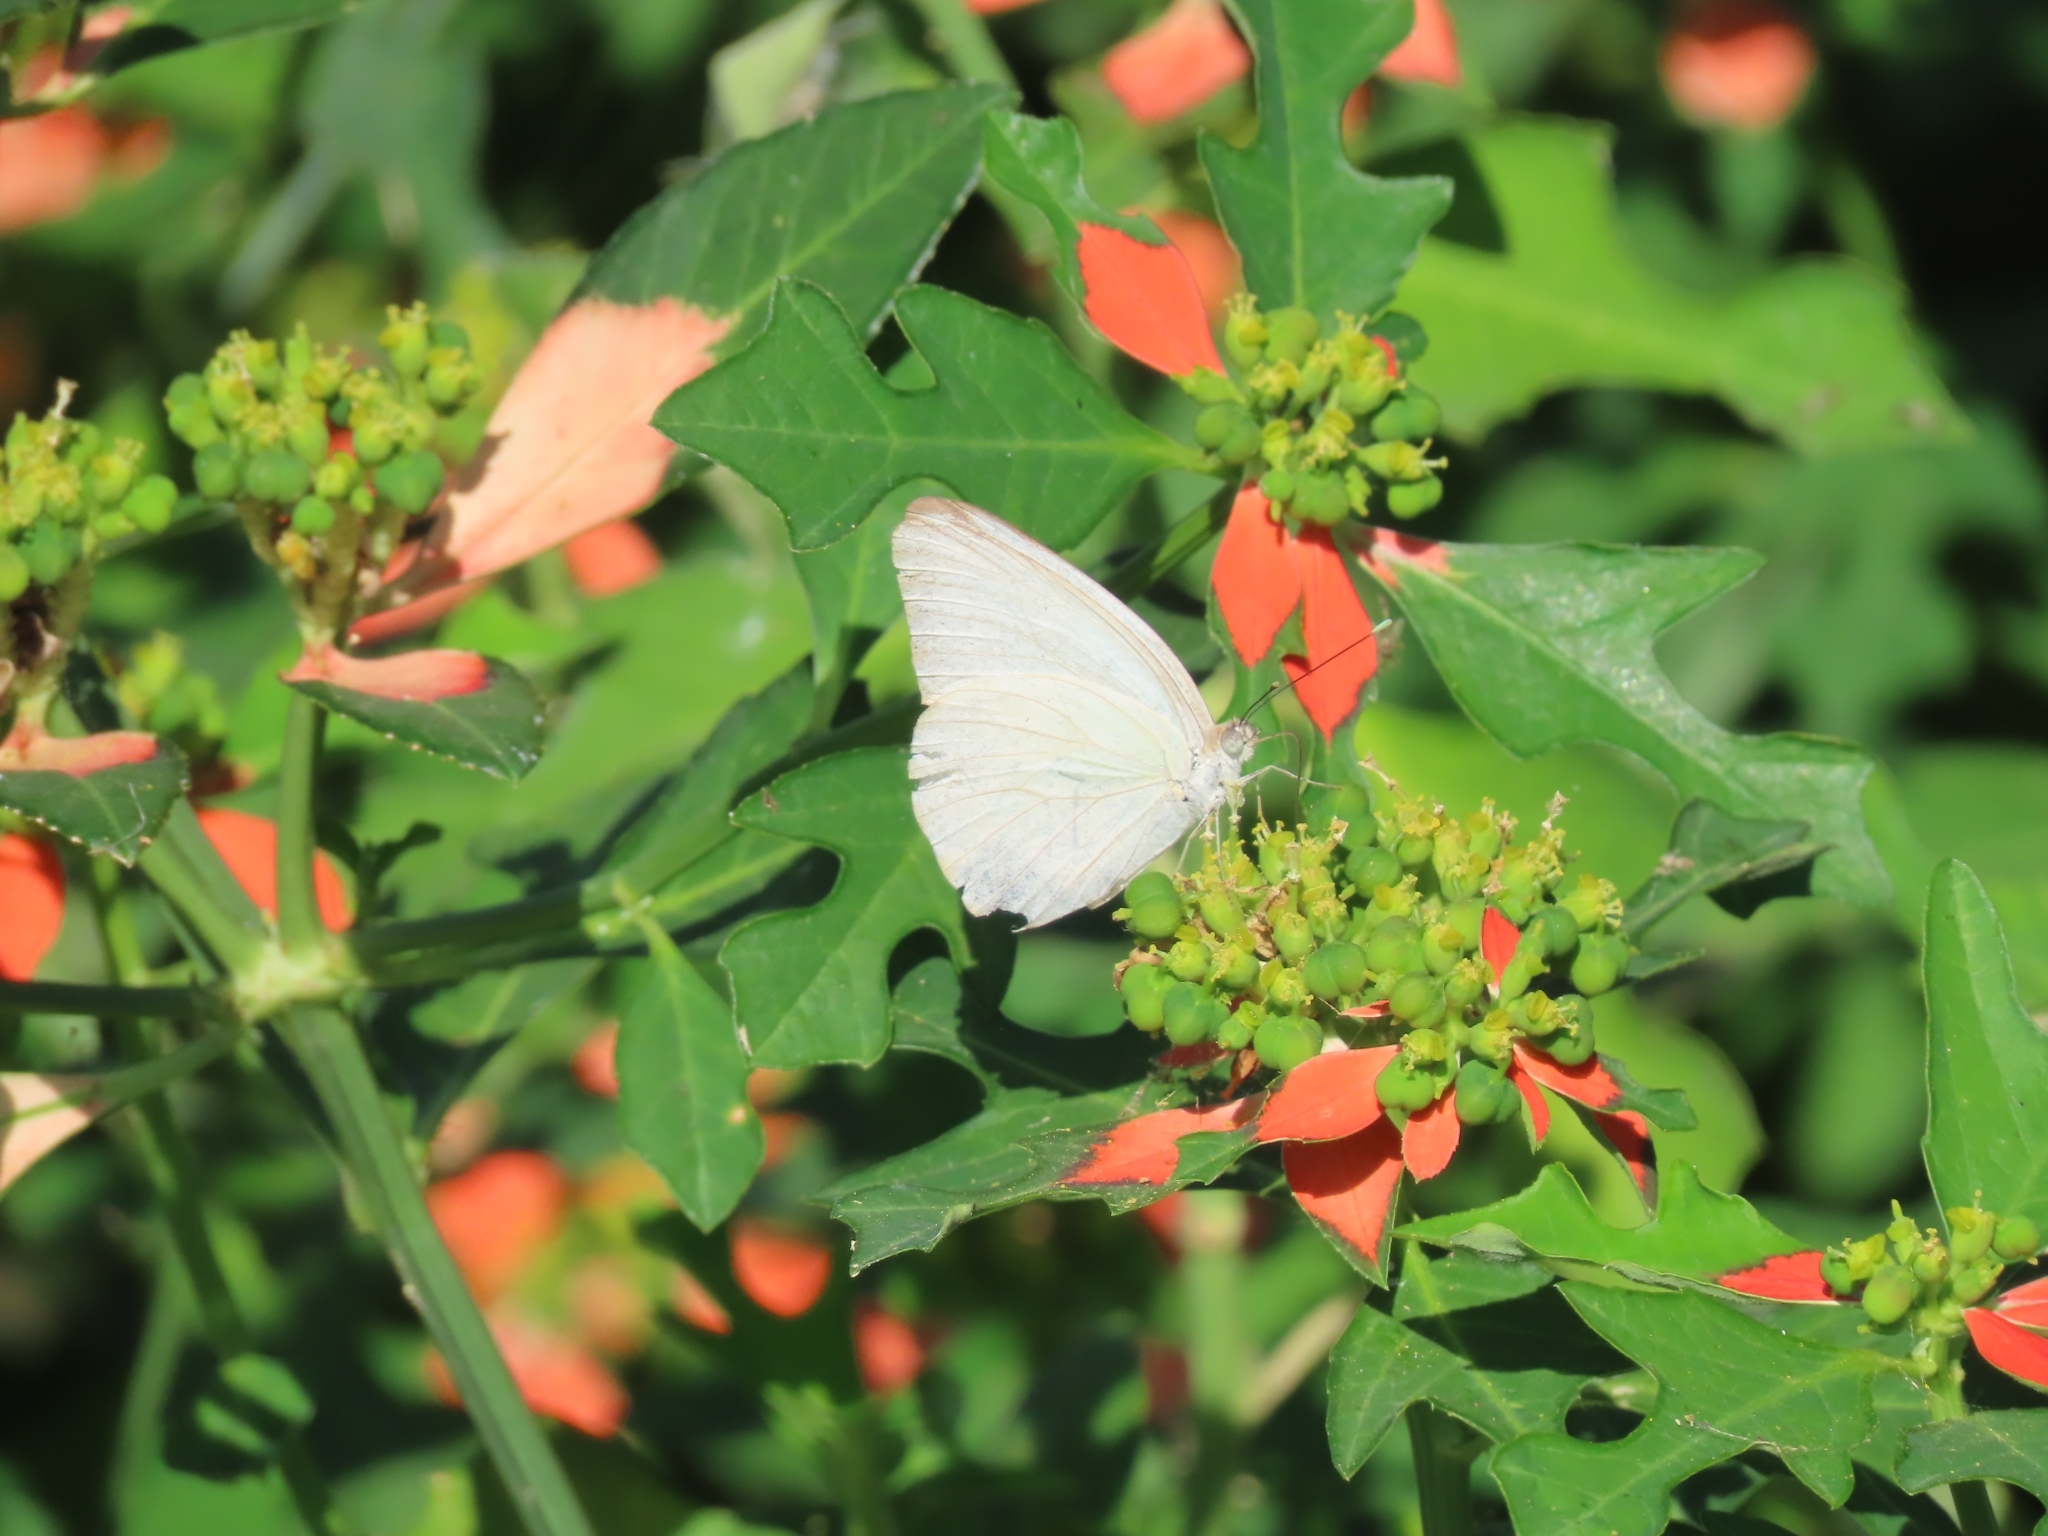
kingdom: Animalia
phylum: Arthropoda
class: Insecta
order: Lepidoptera
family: Pieridae
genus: Ascia
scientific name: Ascia monuste
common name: Great southern white
